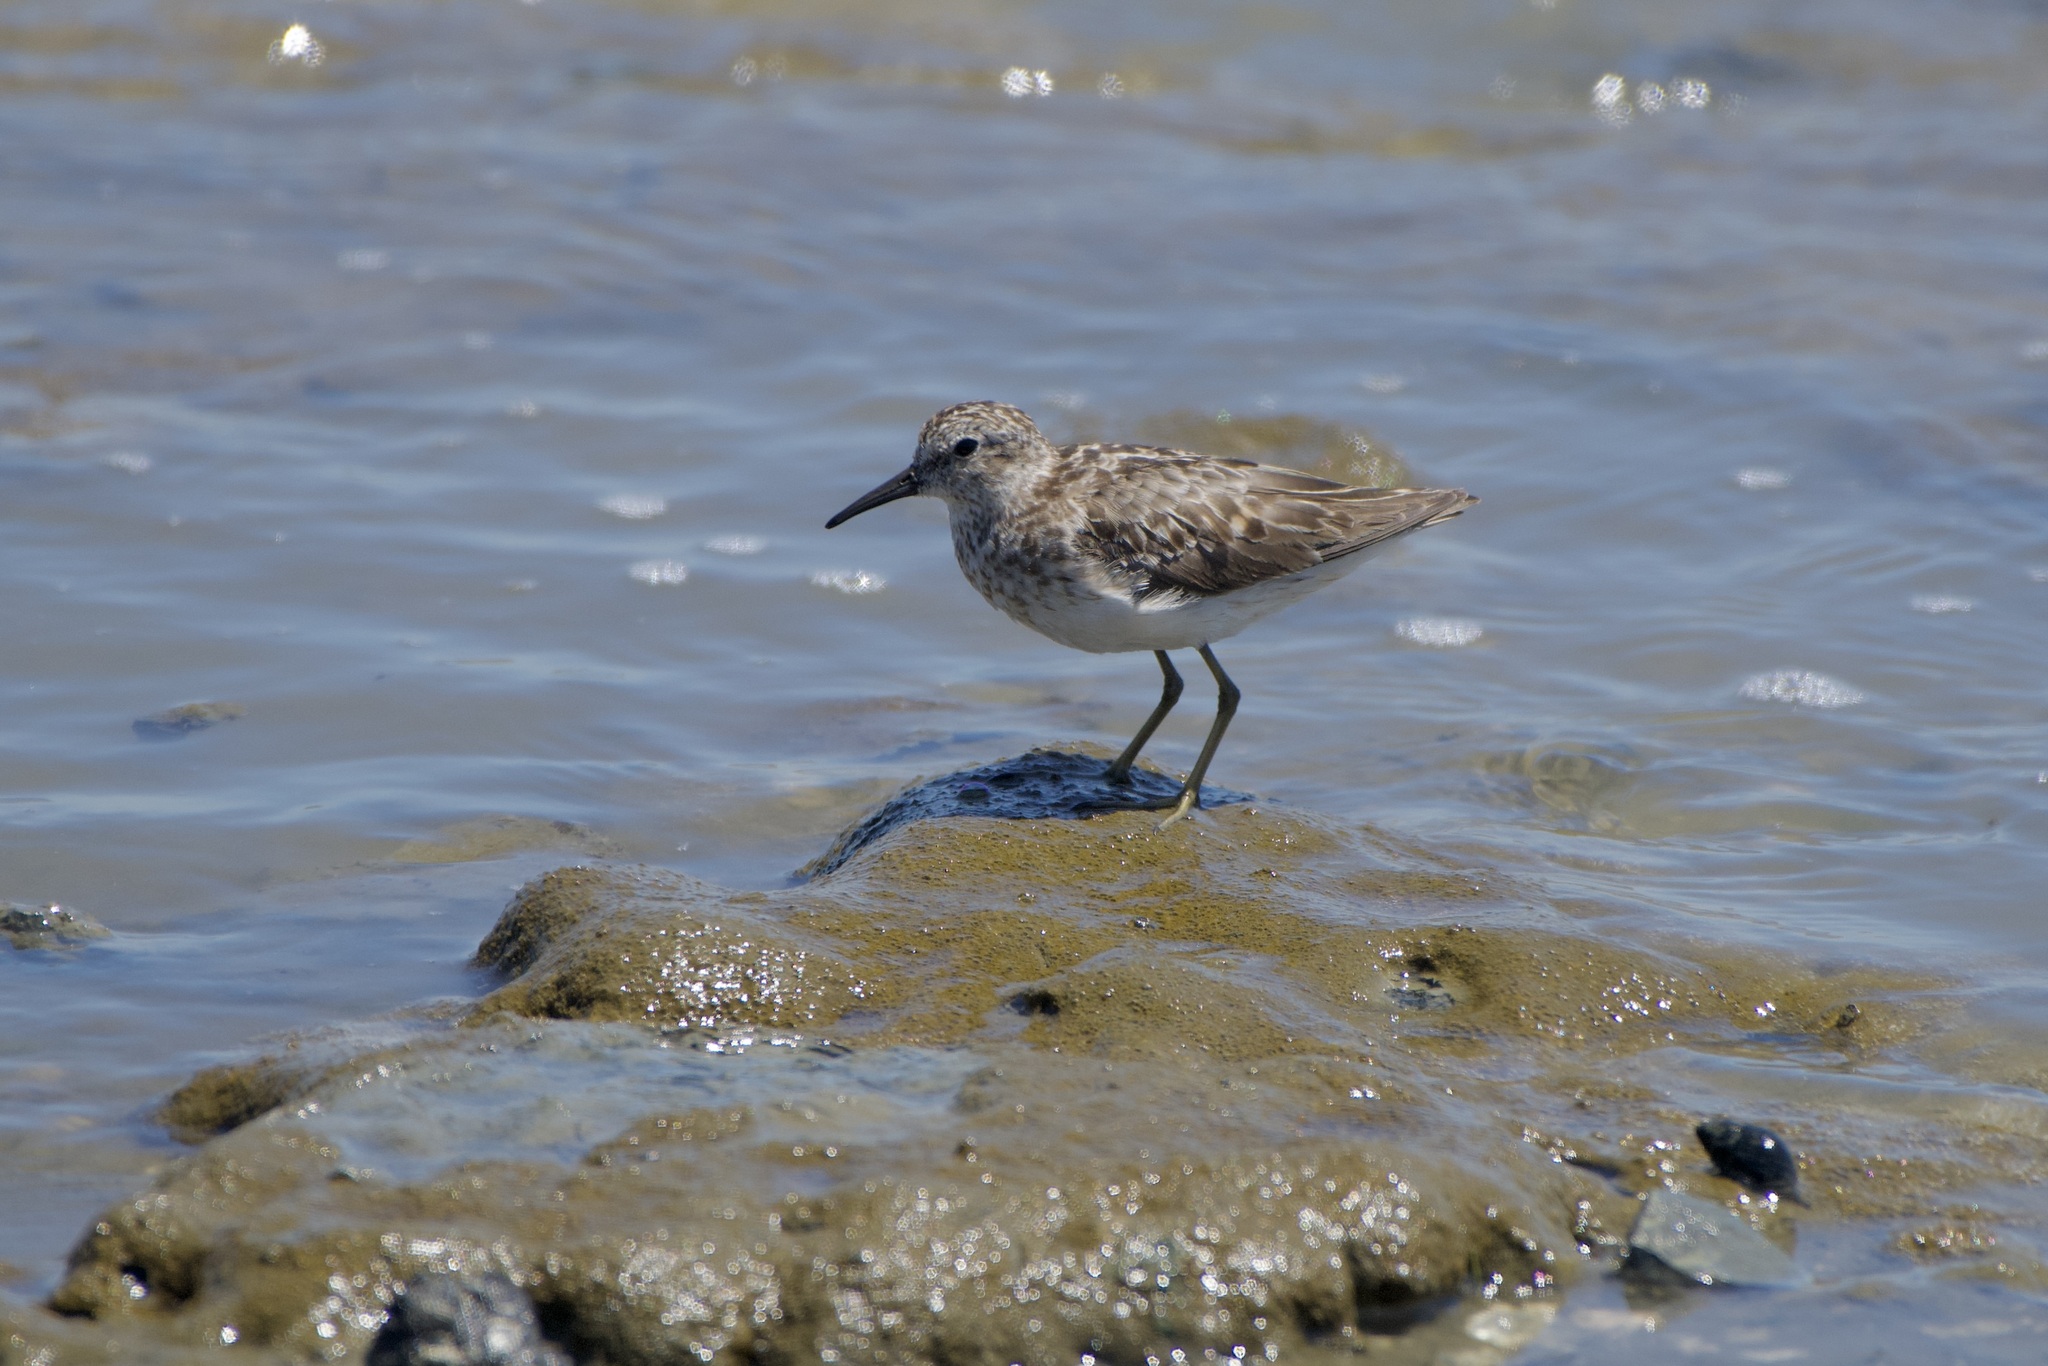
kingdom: Animalia
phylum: Chordata
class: Aves
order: Charadriiformes
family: Scolopacidae
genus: Calidris
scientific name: Calidris minutilla
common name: Least sandpiper
